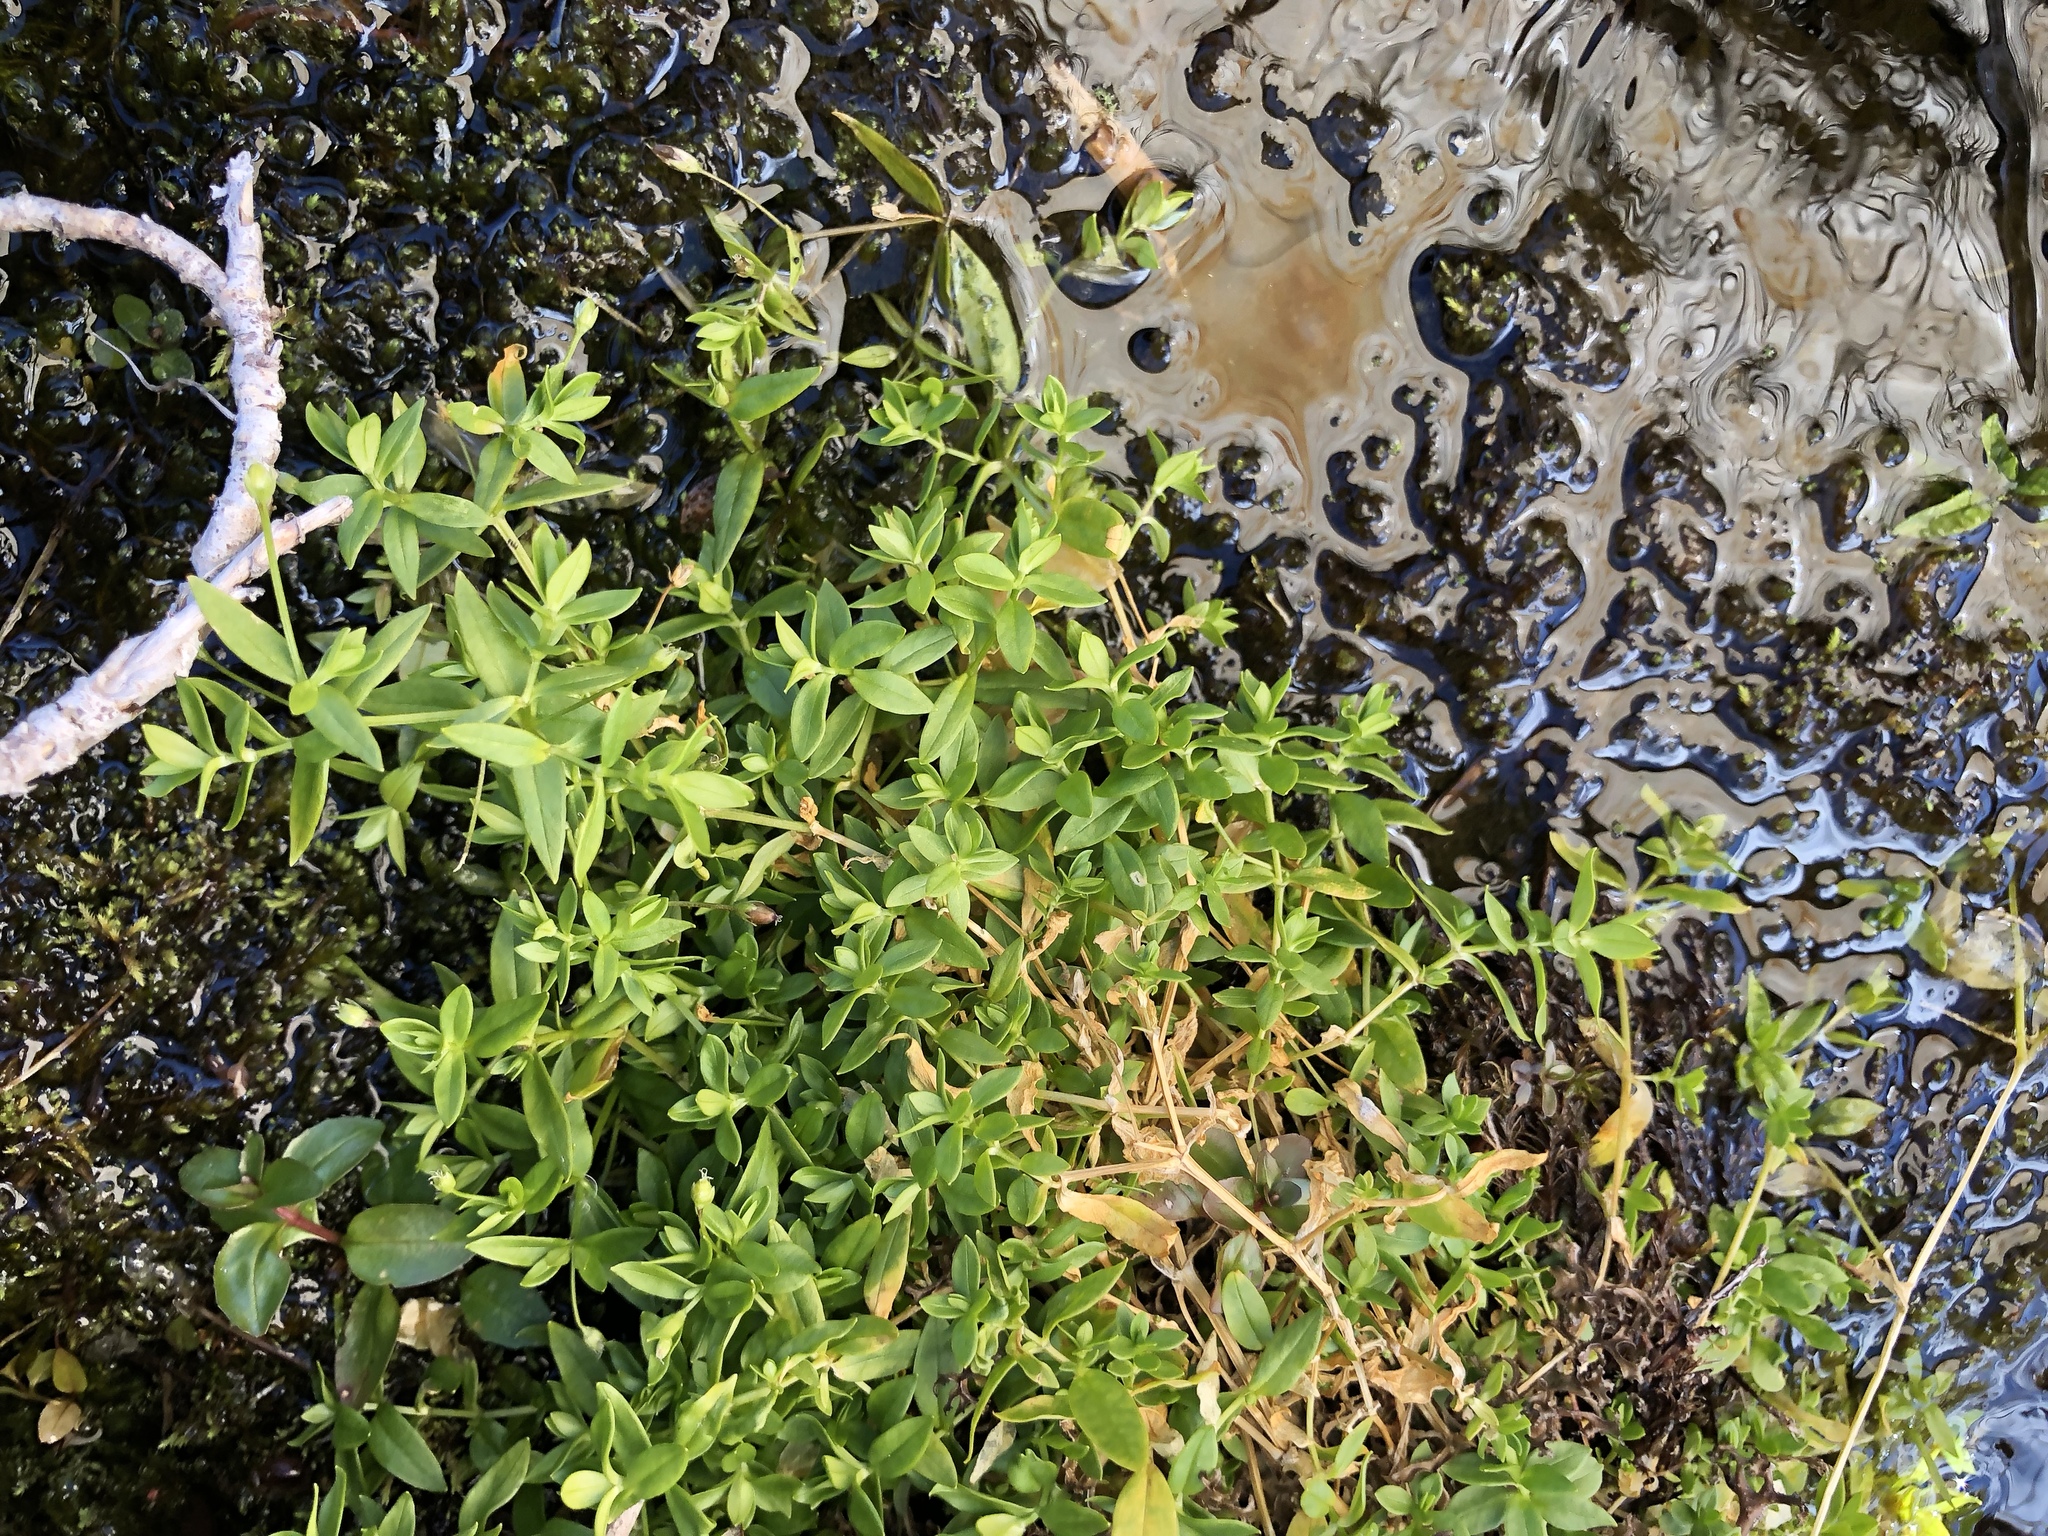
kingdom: Plantae
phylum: Tracheophyta
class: Magnoliopsida
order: Caryophyllales
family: Caryophyllaceae
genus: Stellaria
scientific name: Stellaria borealis
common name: Boreal starwort
